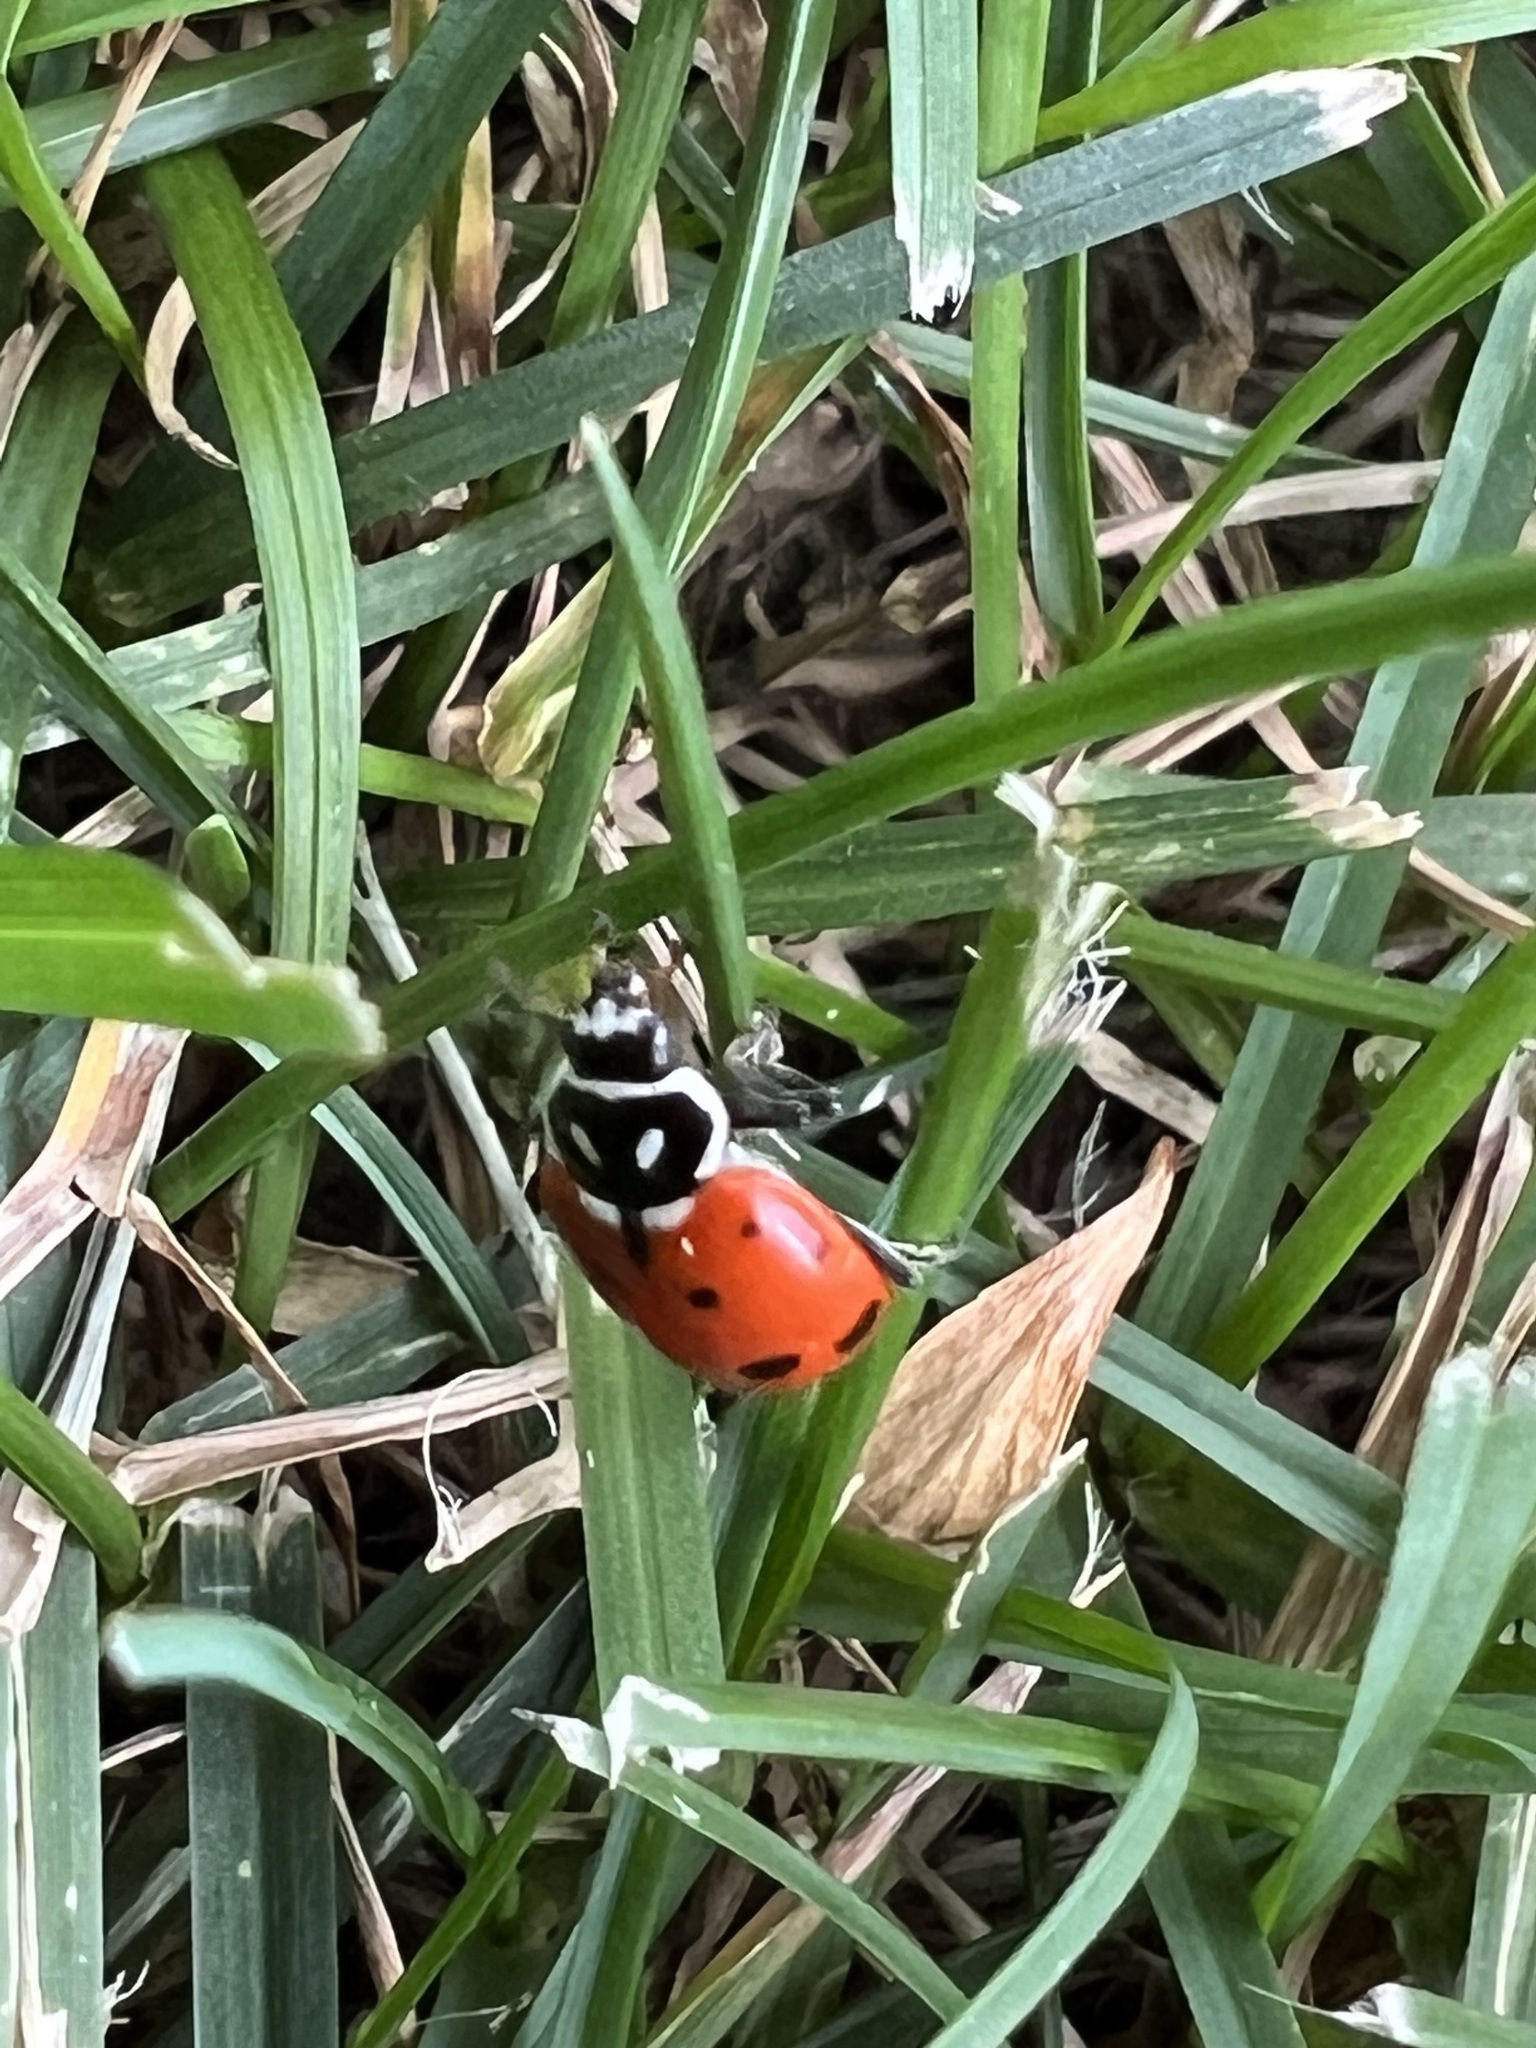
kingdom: Animalia
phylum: Arthropoda
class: Insecta
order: Coleoptera
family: Coccinellidae
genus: Hippodamia
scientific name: Hippodamia convergens
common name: Convergent lady beetle
